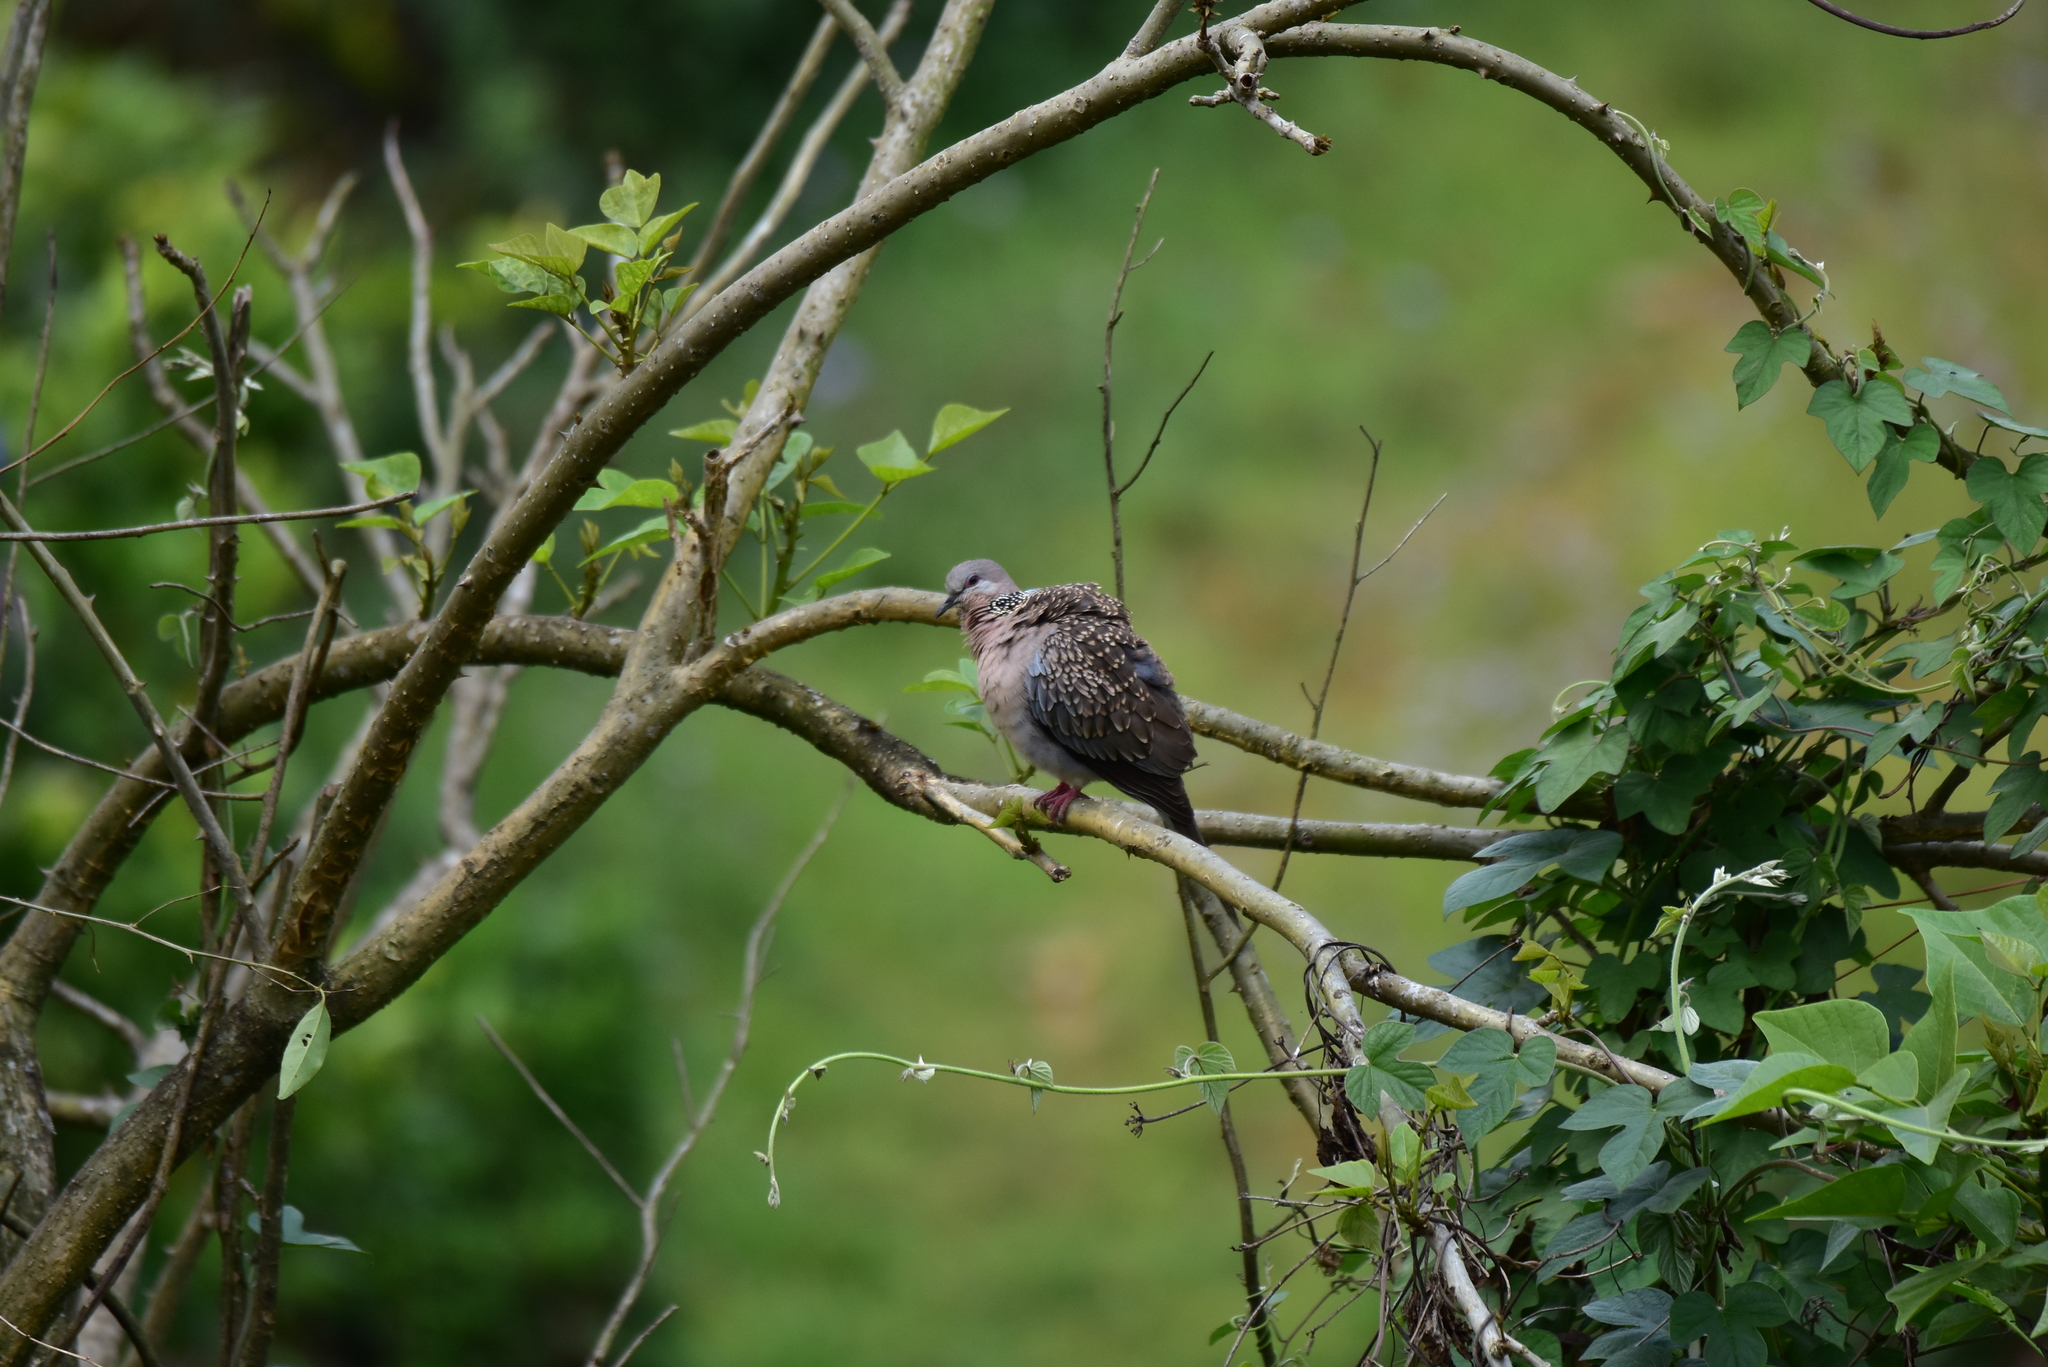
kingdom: Animalia
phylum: Chordata
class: Aves
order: Columbiformes
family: Columbidae
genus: Spilopelia
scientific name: Spilopelia chinensis
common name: Spotted dove
